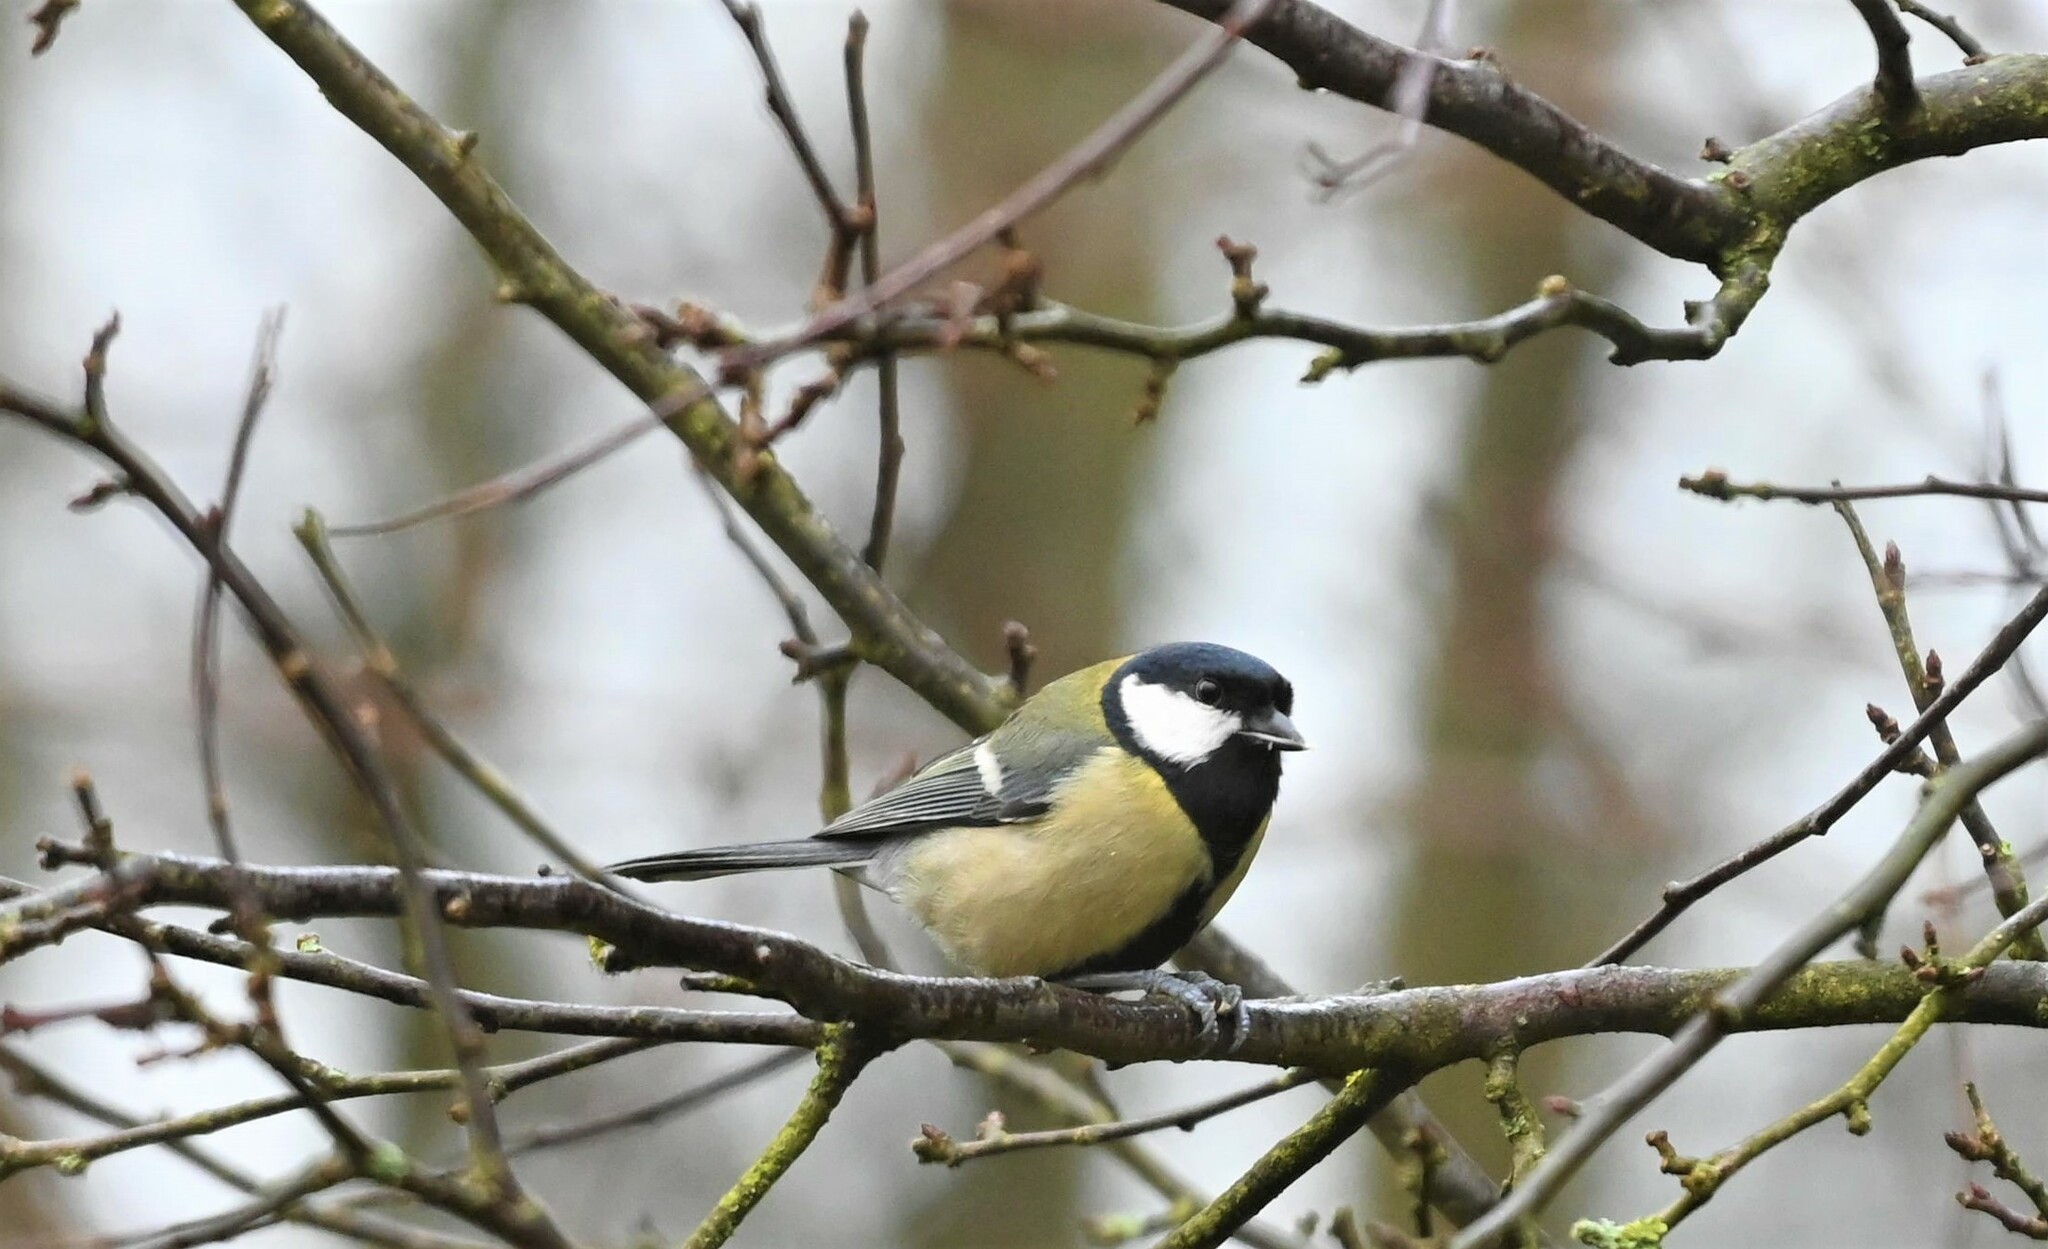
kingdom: Animalia
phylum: Chordata
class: Aves
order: Passeriformes
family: Paridae
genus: Parus
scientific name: Parus major
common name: Great tit
